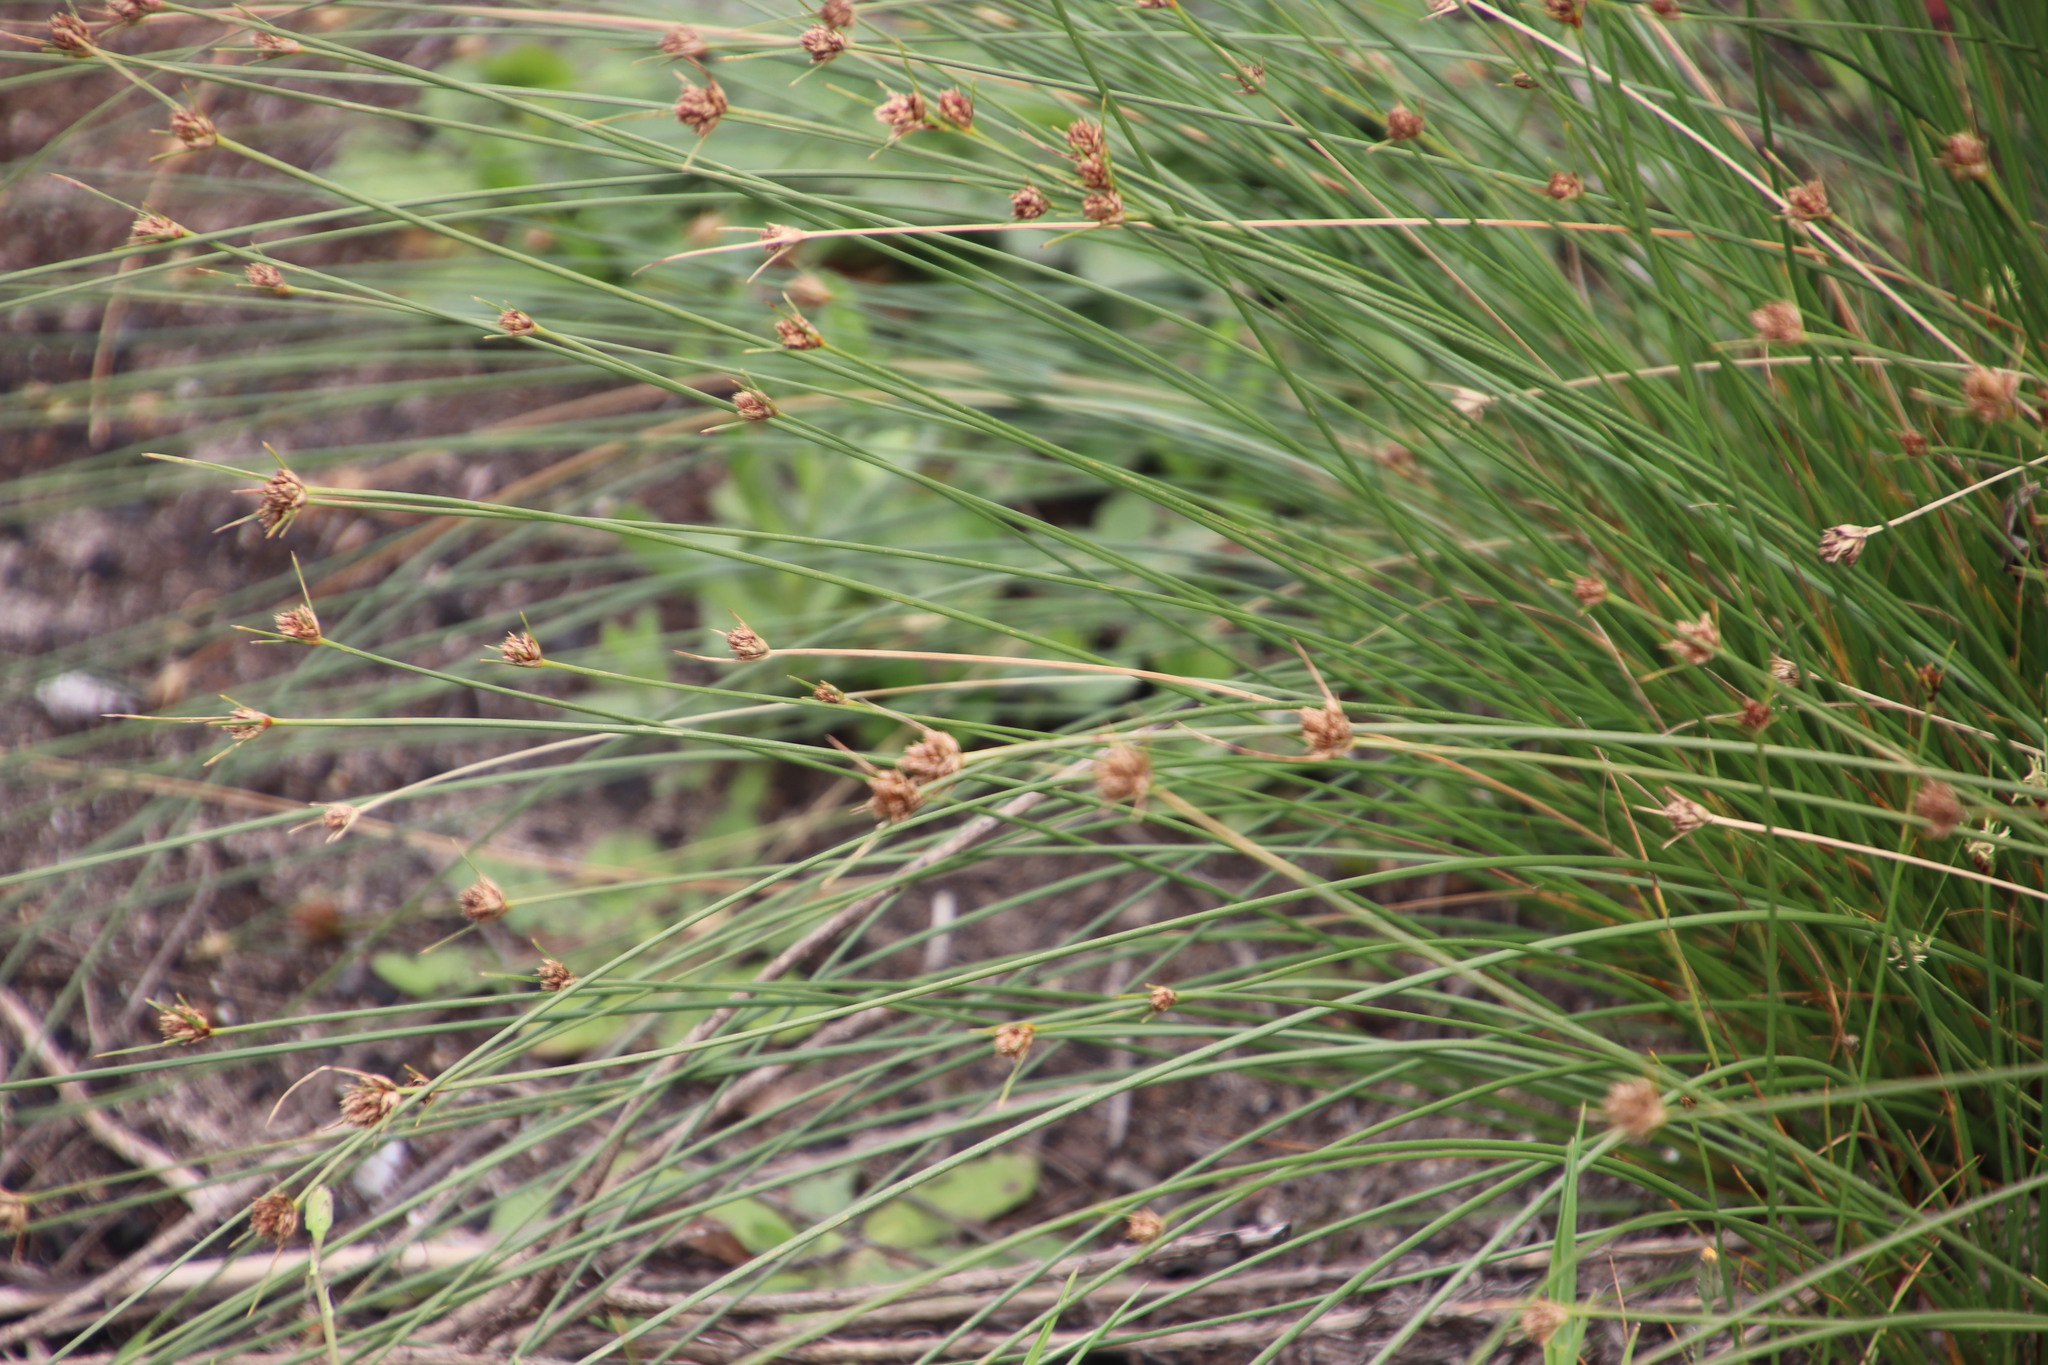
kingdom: Plantae
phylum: Tracheophyta
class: Liliopsida
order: Poales
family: Cyperaceae
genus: Ficinia
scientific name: Ficinia indica
